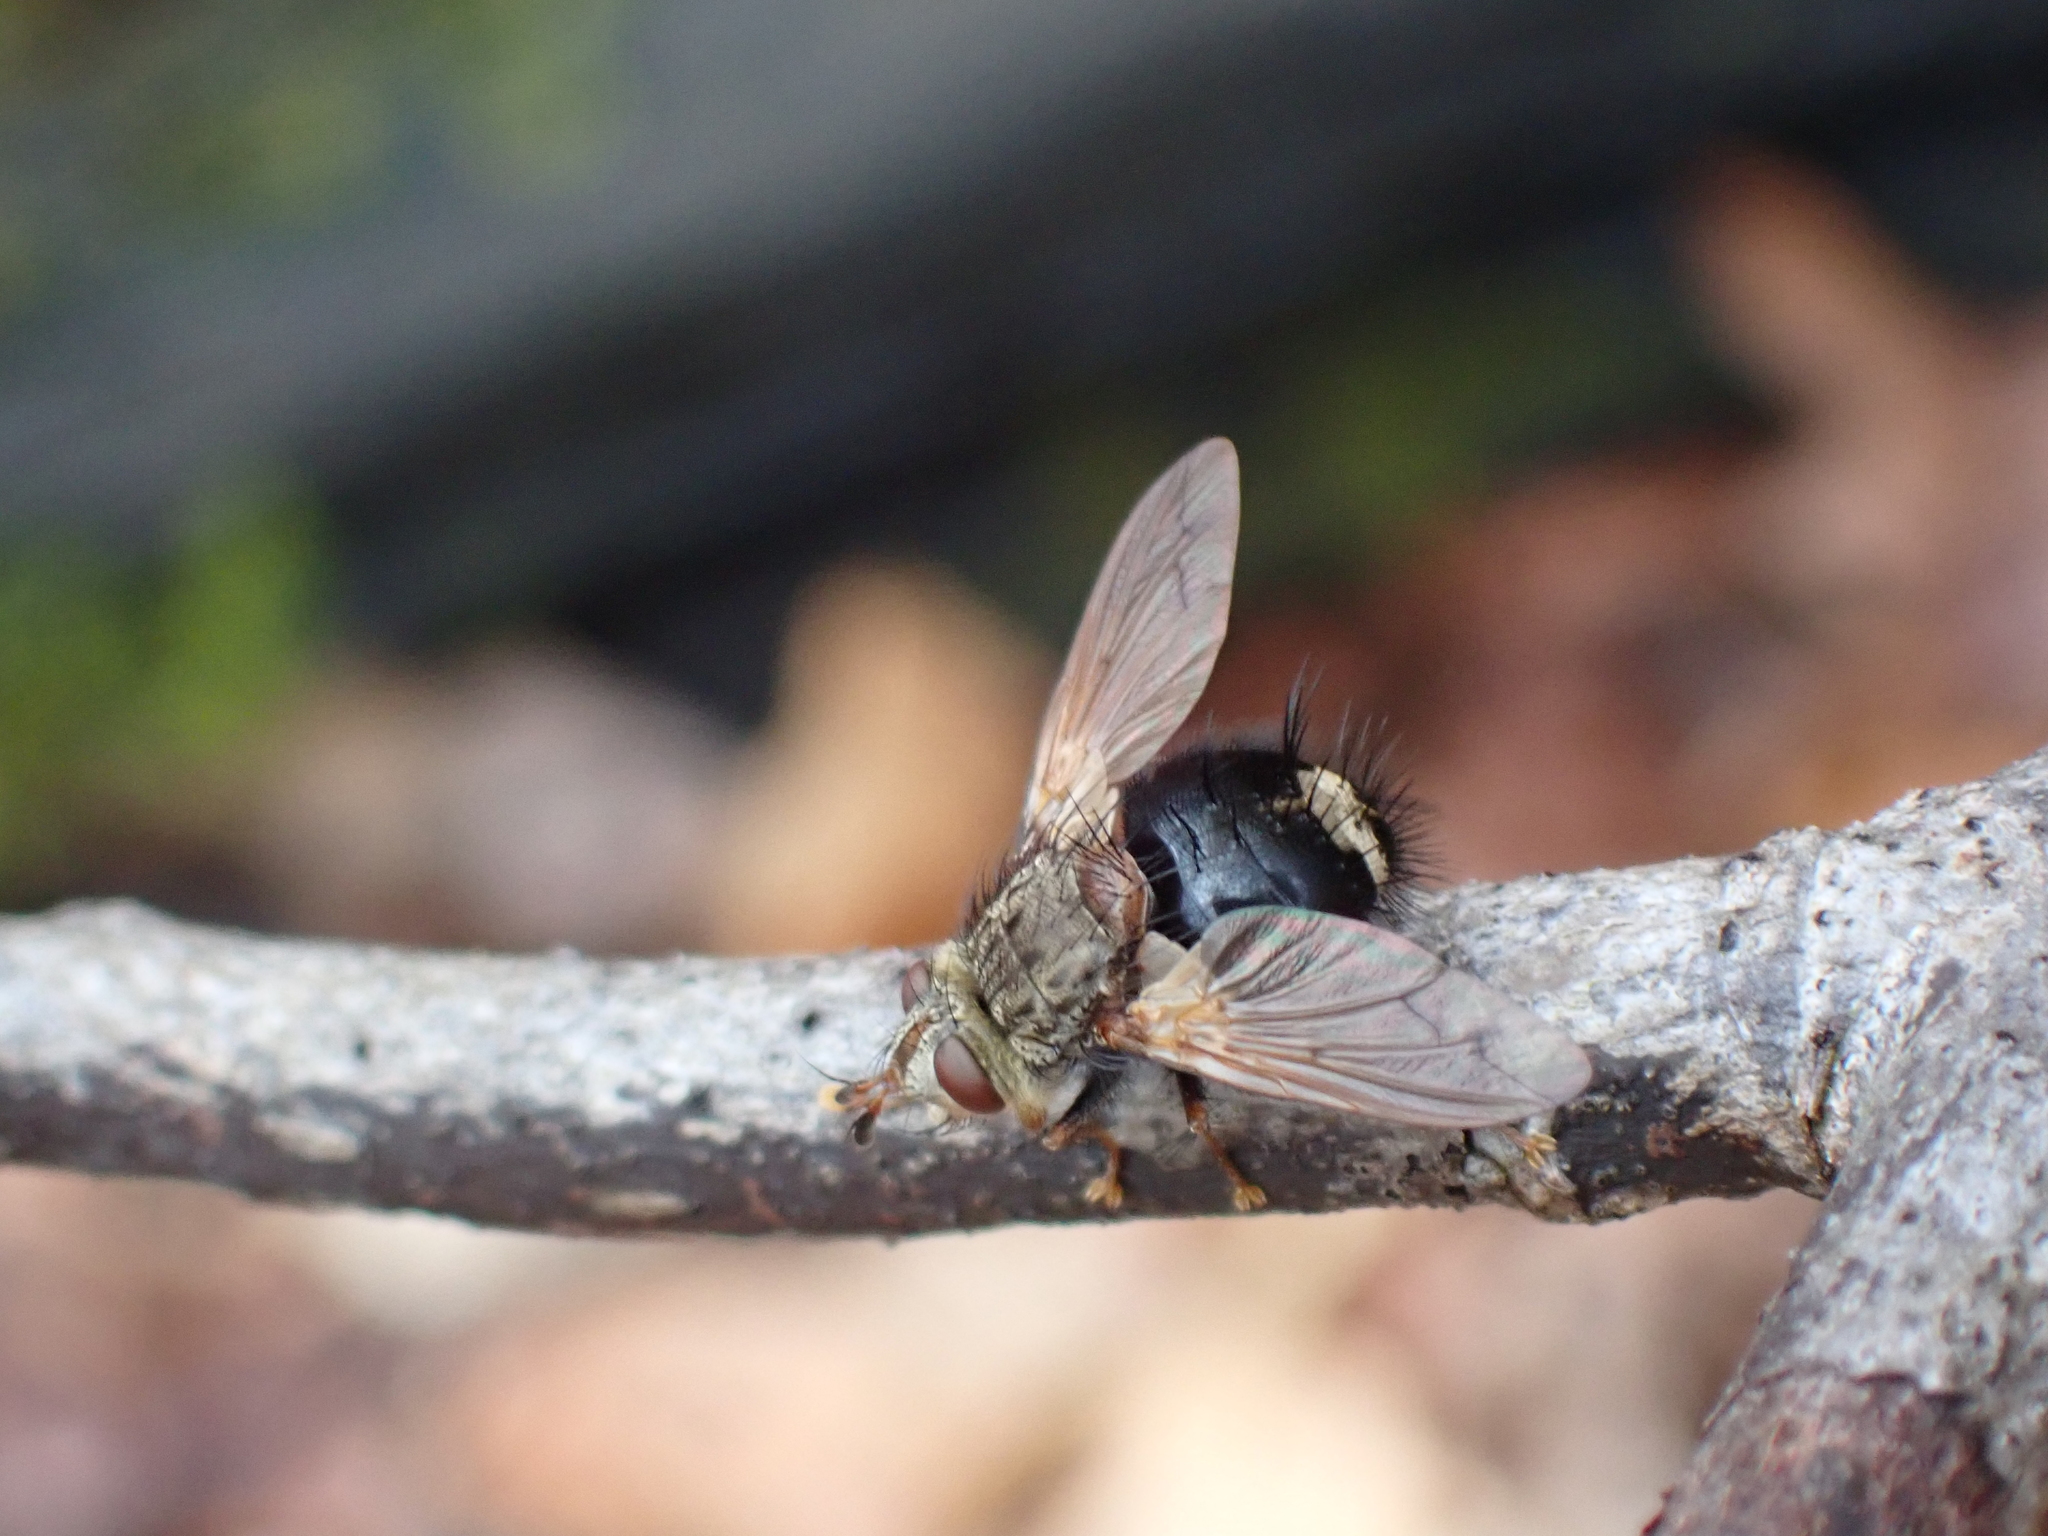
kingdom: Animalia
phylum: Arthropoda
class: Insecta
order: Diptera
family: Tachinidae
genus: Epalpus
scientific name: Epalpus signifer
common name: Early tachinid fly
